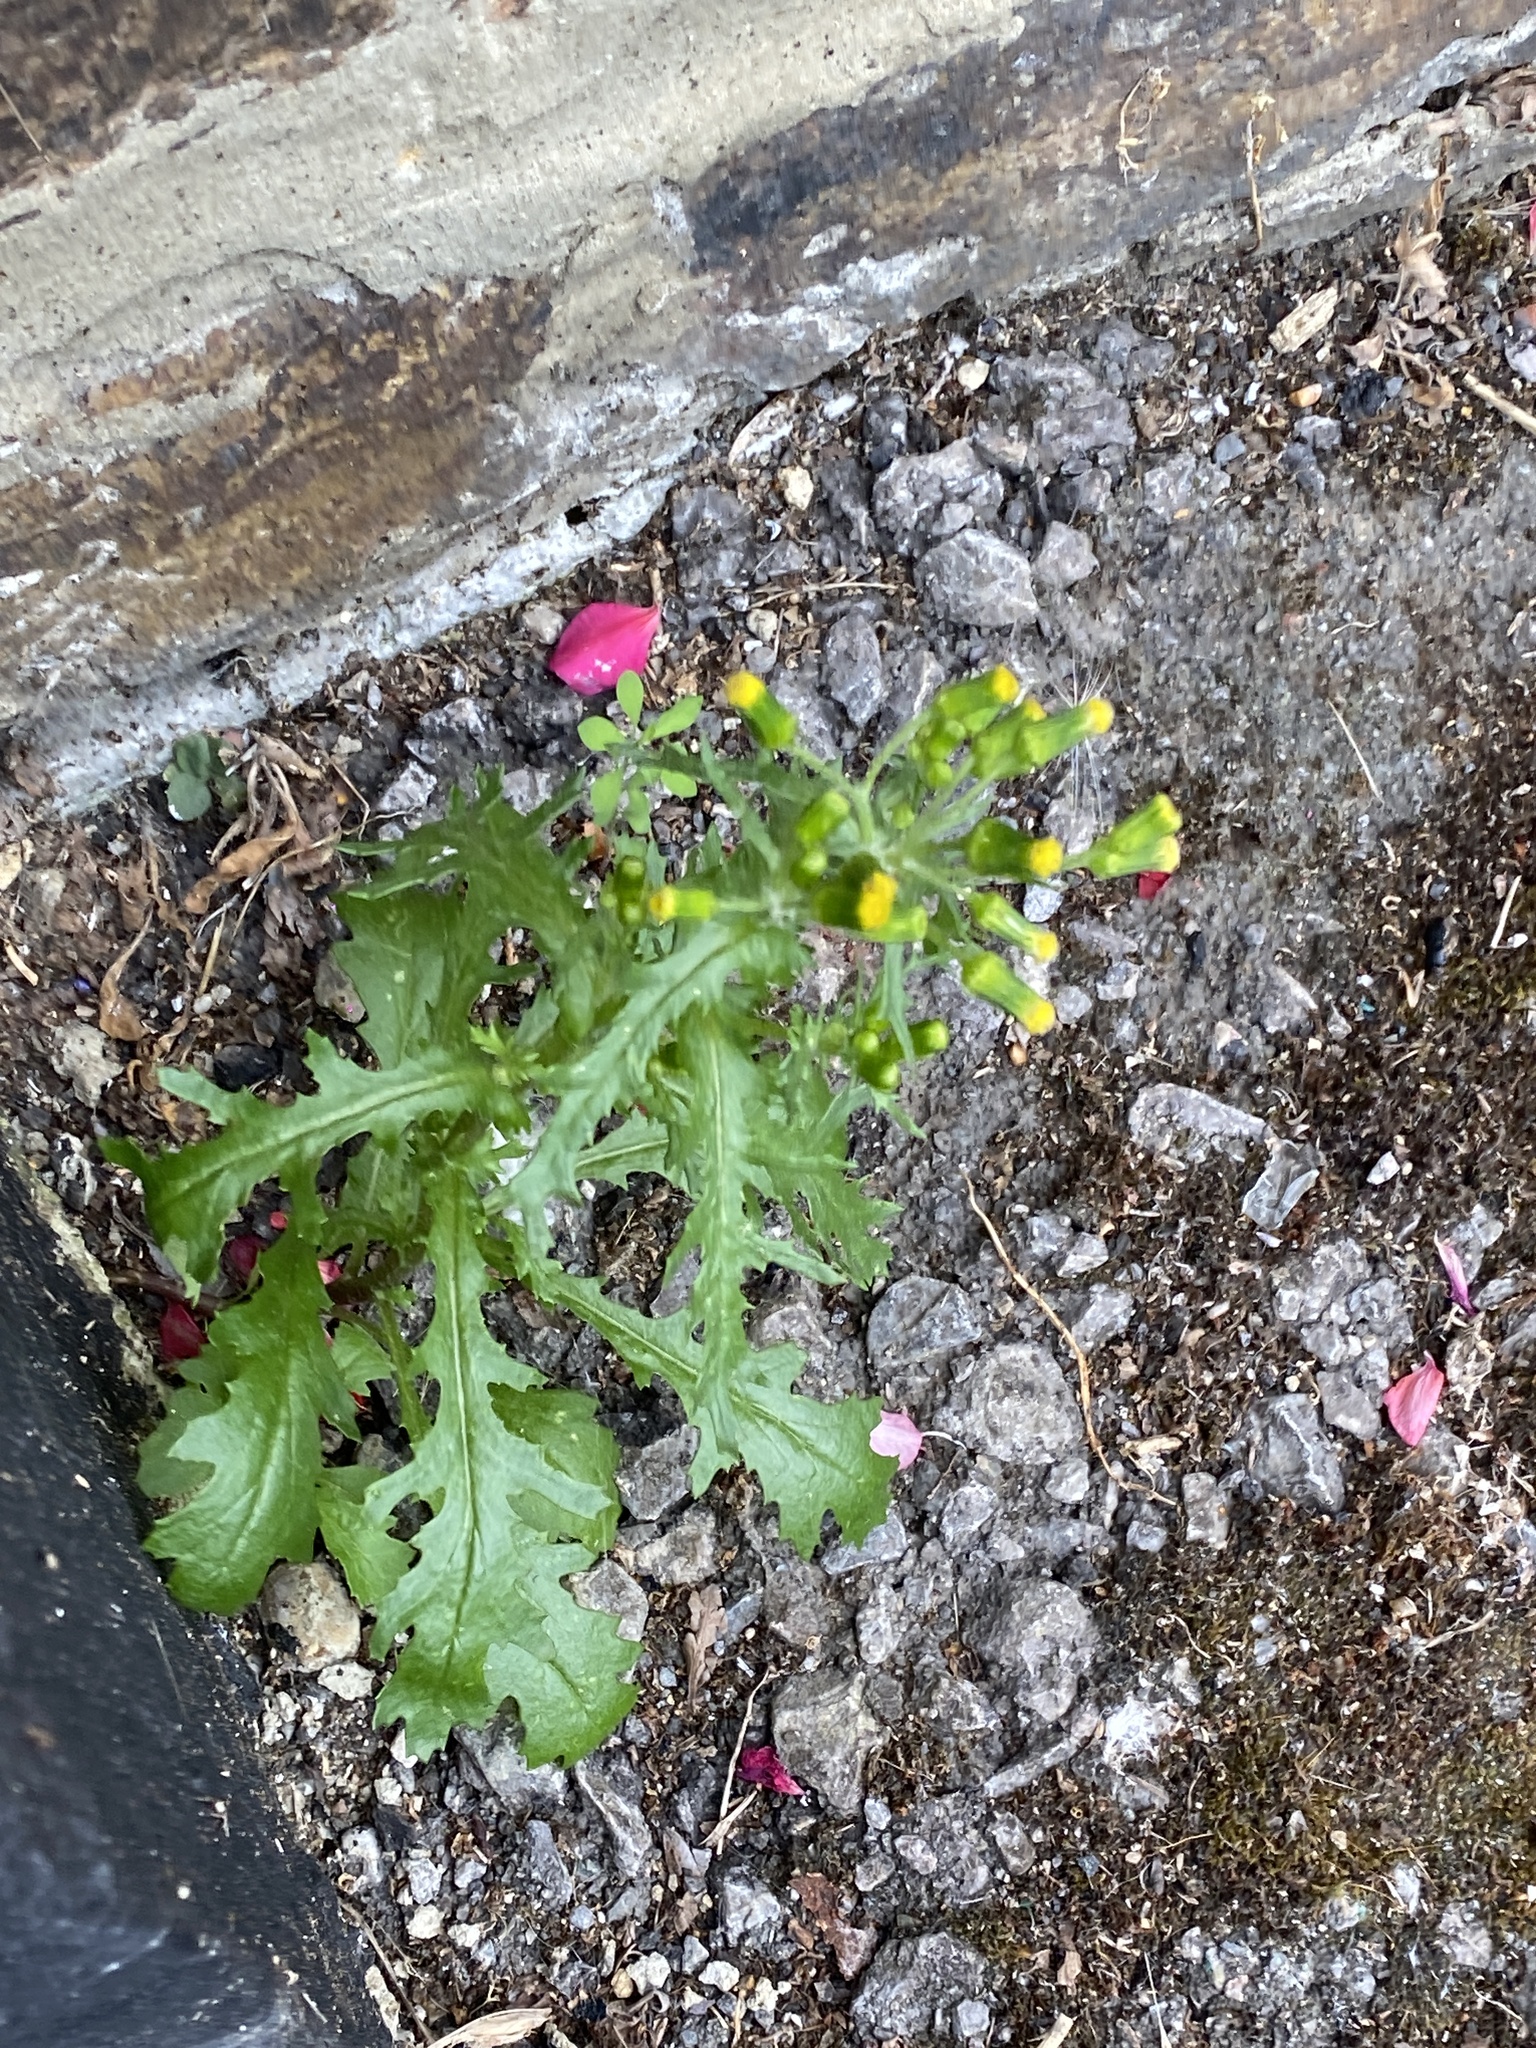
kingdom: Plantae
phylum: Tracheophyta
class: Magnoliopsida
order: Asterales
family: Asteraceae
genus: Senecio
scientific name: Senecio vulgaris
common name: Old-man-in-the-spring
